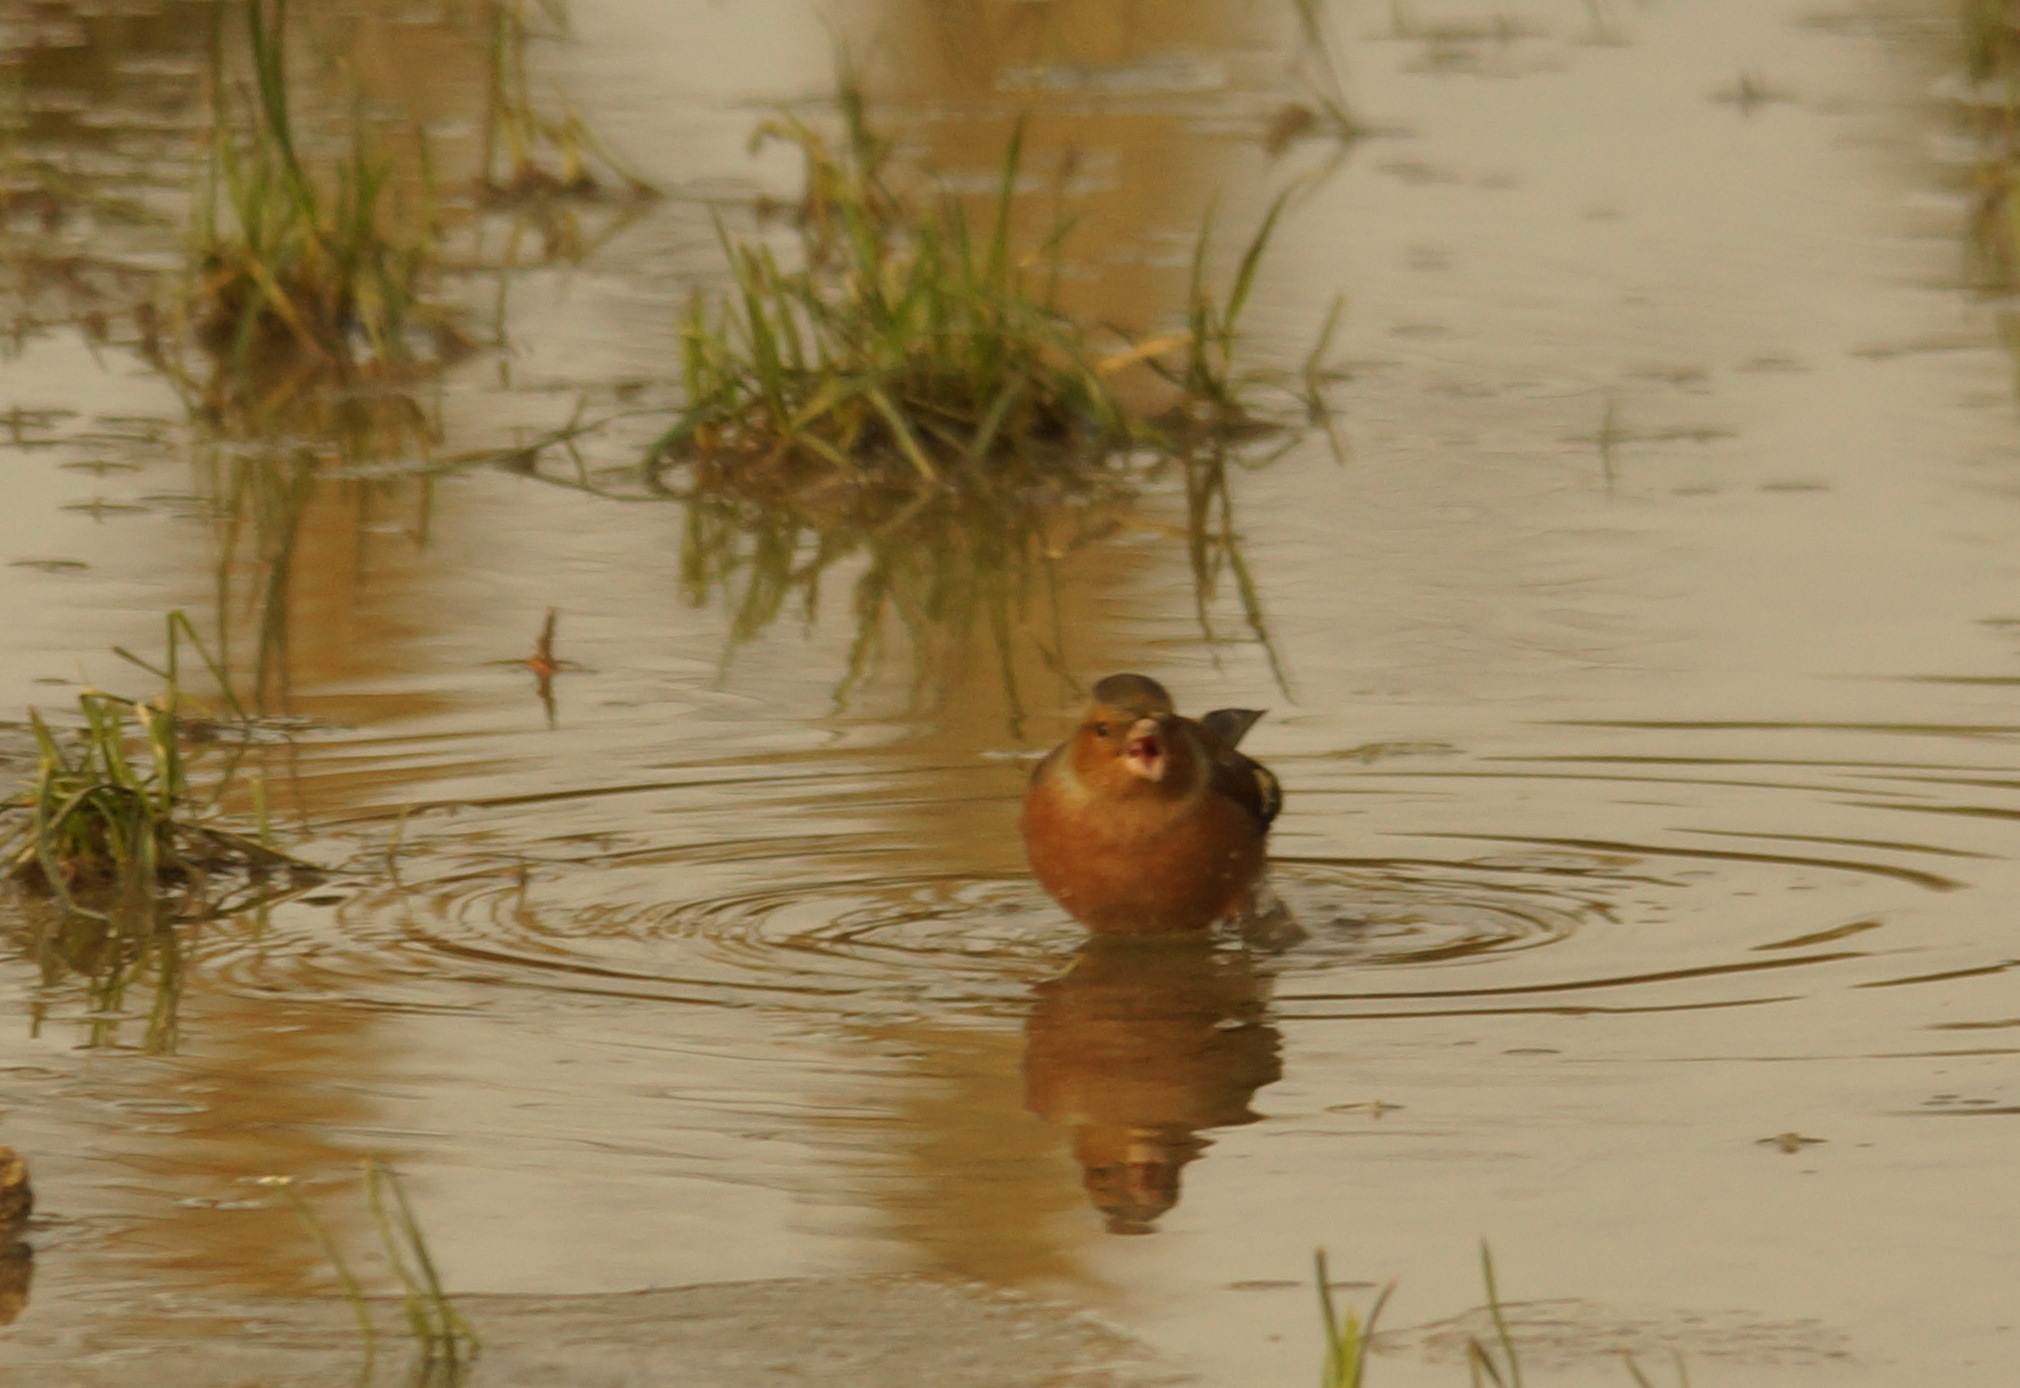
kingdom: Animalia
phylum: Chordata
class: Aves
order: Passeriformes
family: Fringillidae
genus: Fringilla
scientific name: Fringilla coelebs
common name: Common chaffinch
